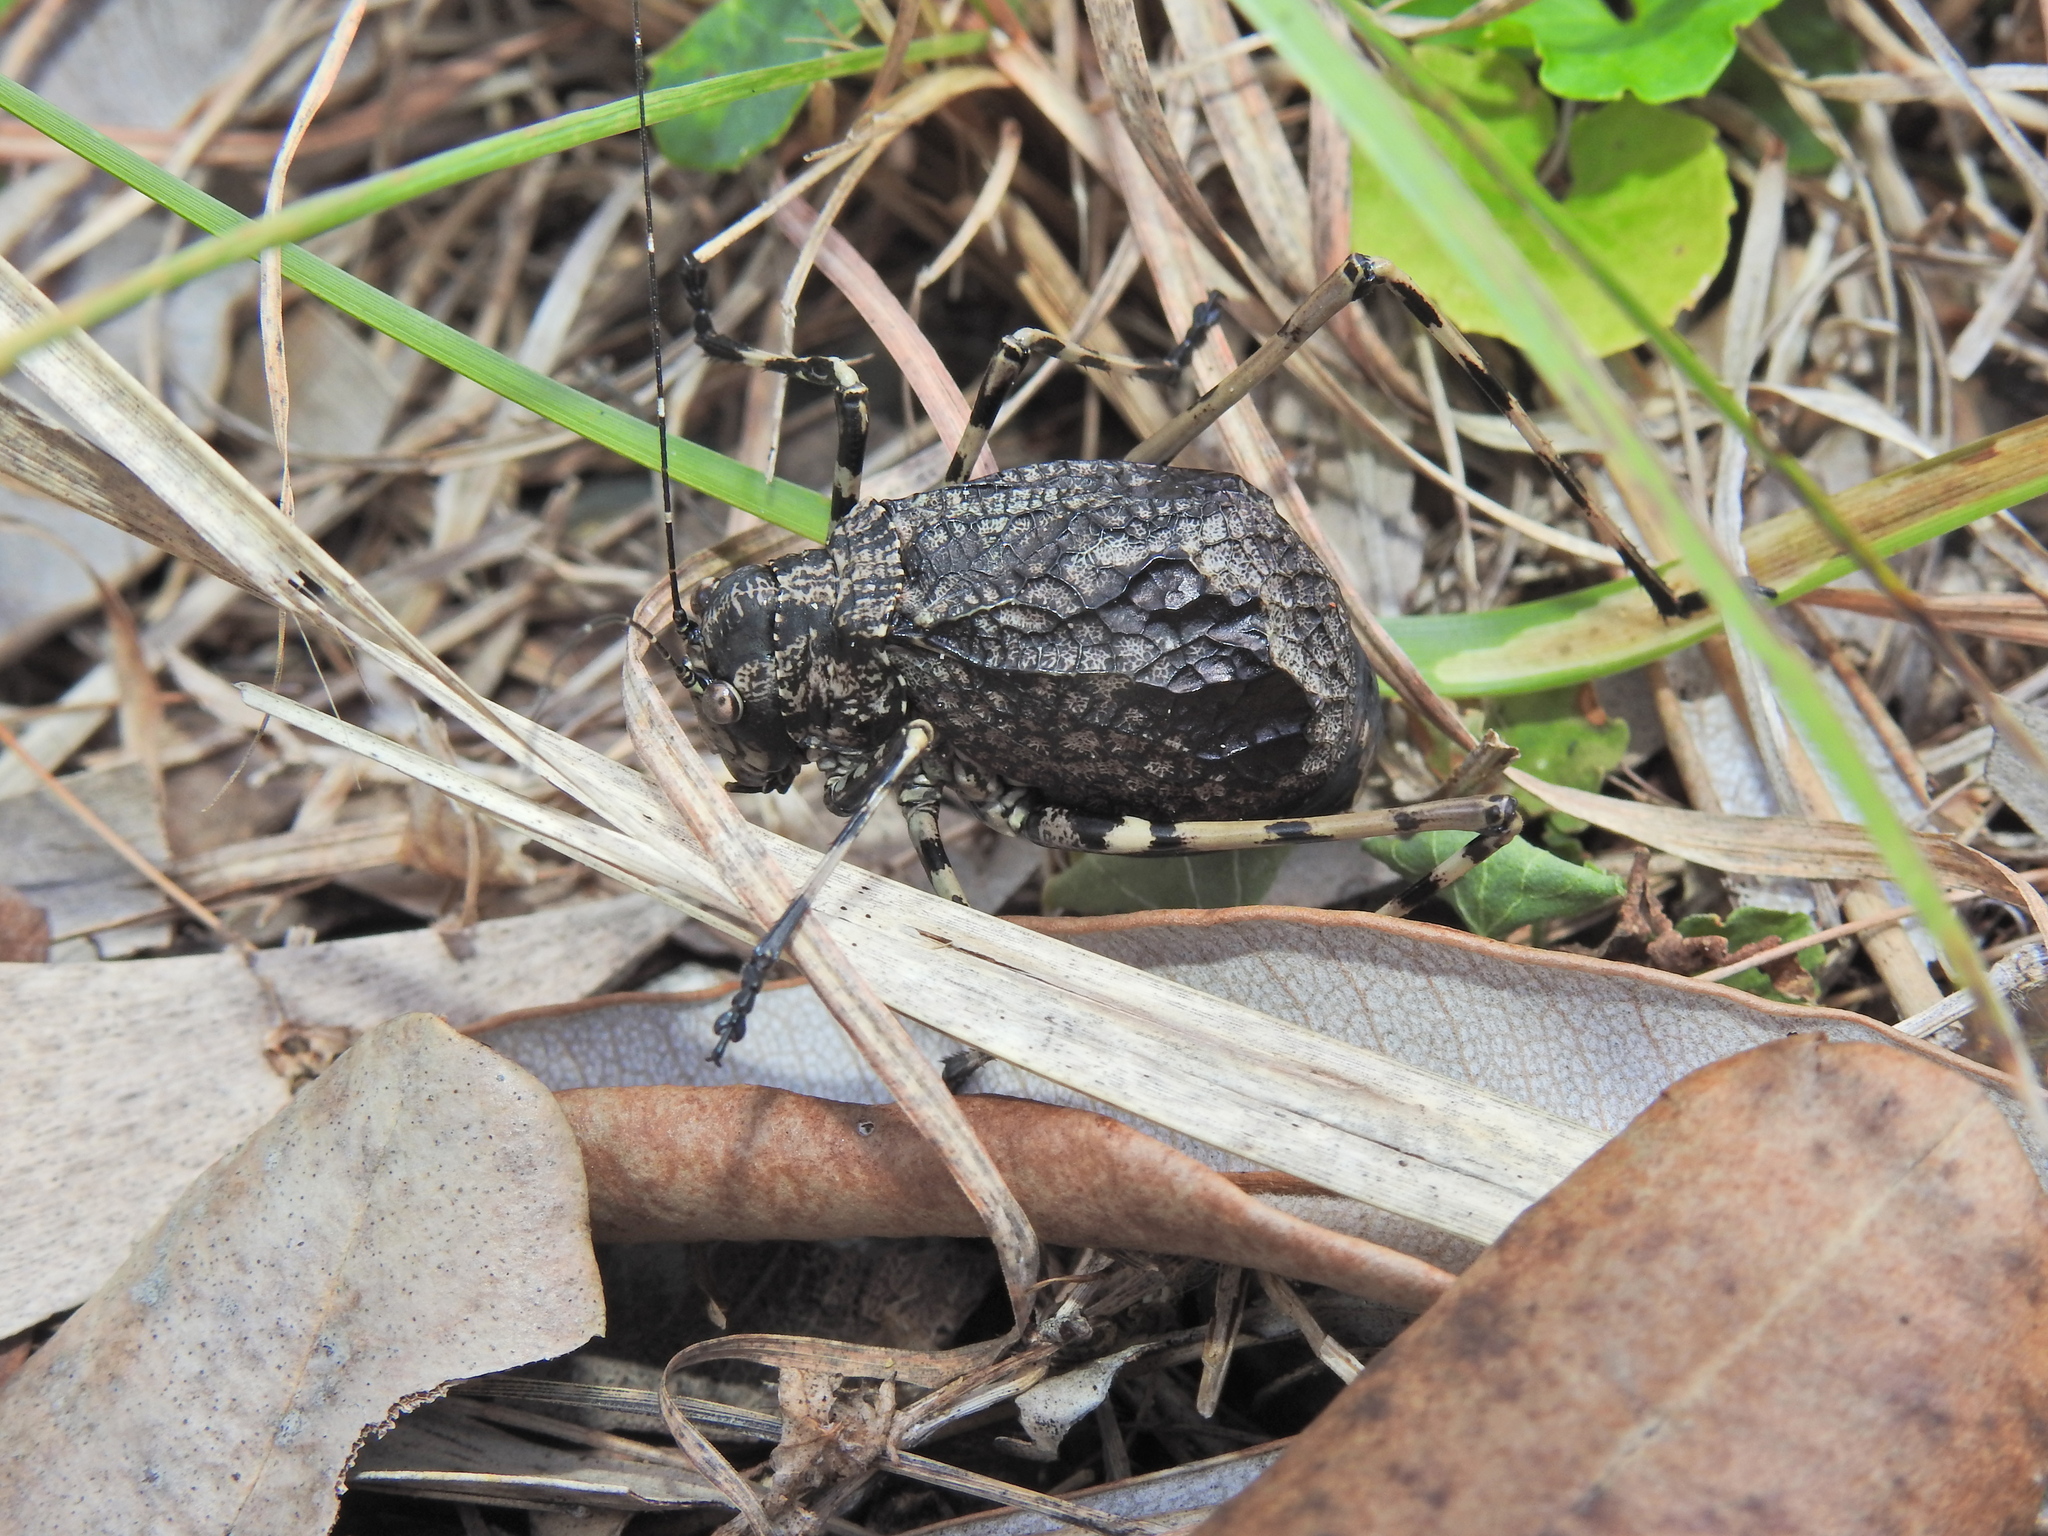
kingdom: Animalia
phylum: Arthropoda
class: Insecta
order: Orthoptera
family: Tettigoniidae
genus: Acripeza
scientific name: Acripeza reticulata
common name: Mountain katydid
